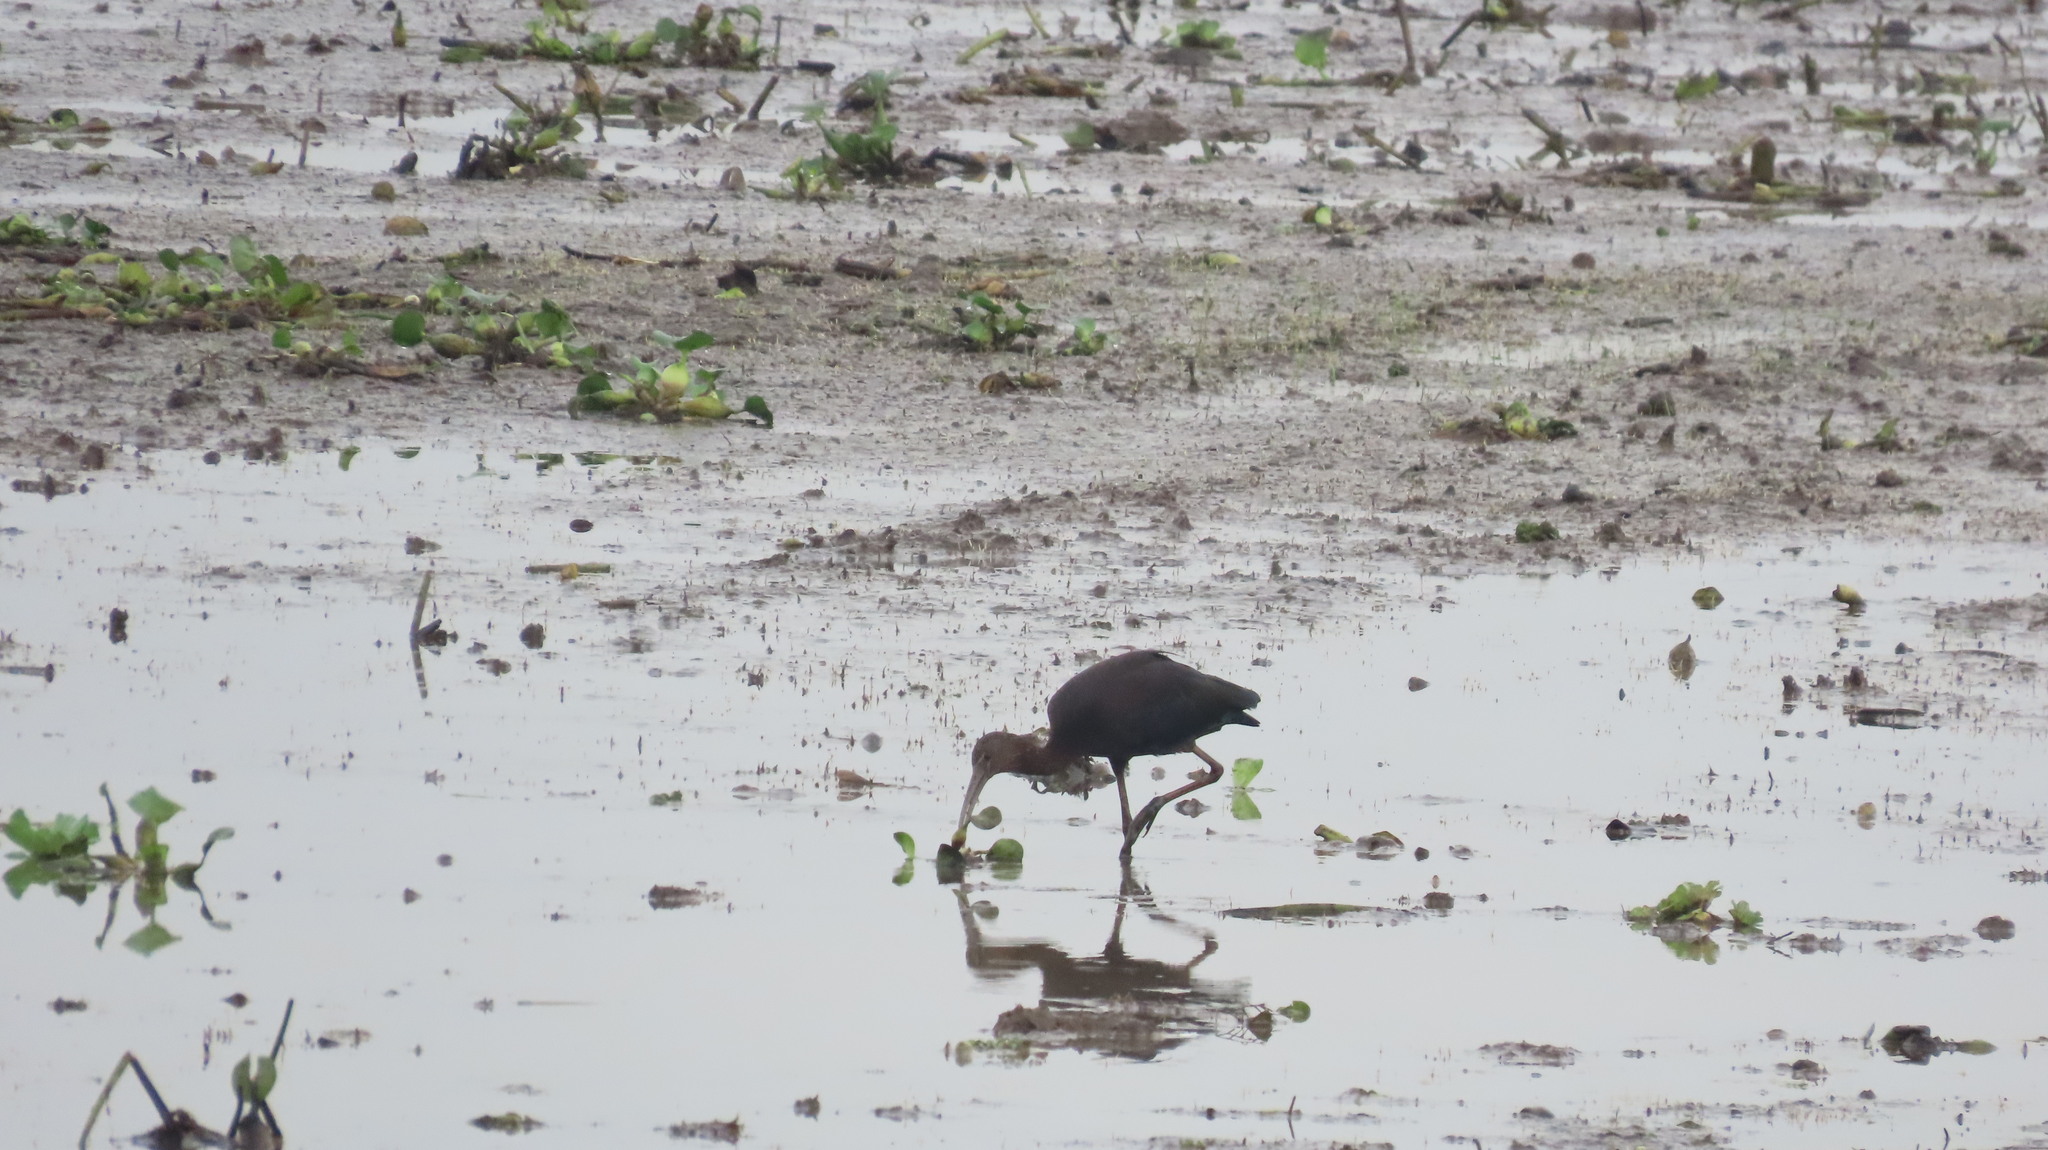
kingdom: Animalia
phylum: Chordata
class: Aves
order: Pelecaniformes
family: Threskiornithidae
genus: Plegadis
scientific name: Plegadis falcinellus
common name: Glossy ibis
